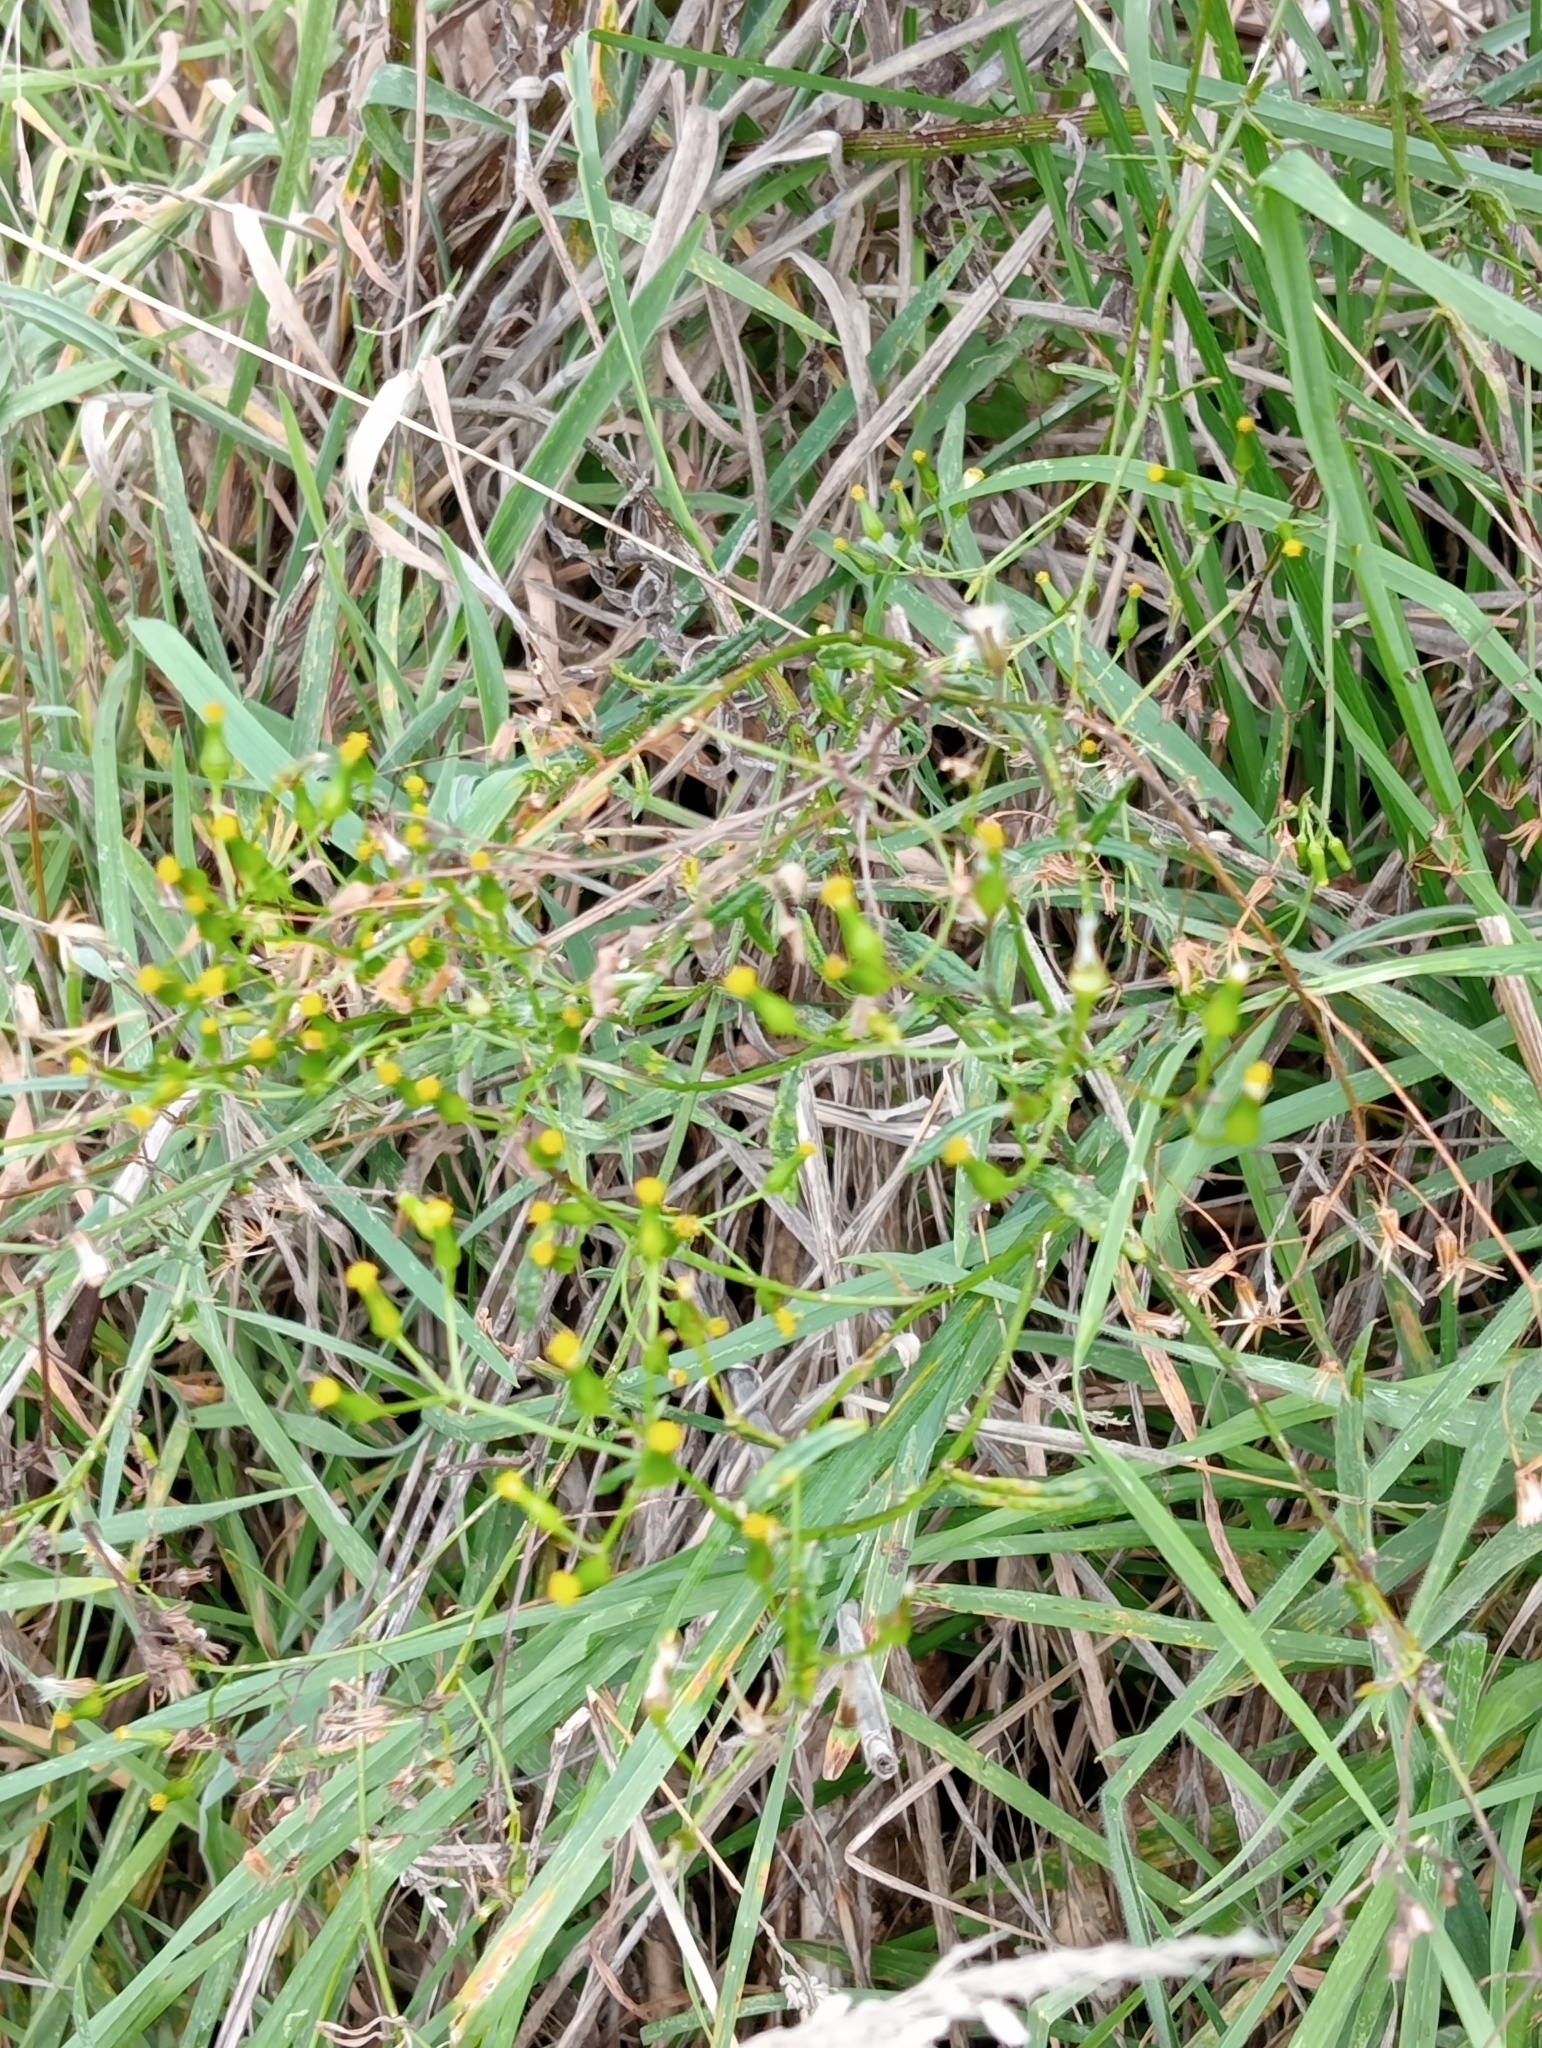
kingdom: Plantae
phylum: Tracheophyta
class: Magnoliopsida
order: Asterales
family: Asteraceae
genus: Senecio
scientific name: Senecio hispidulus
